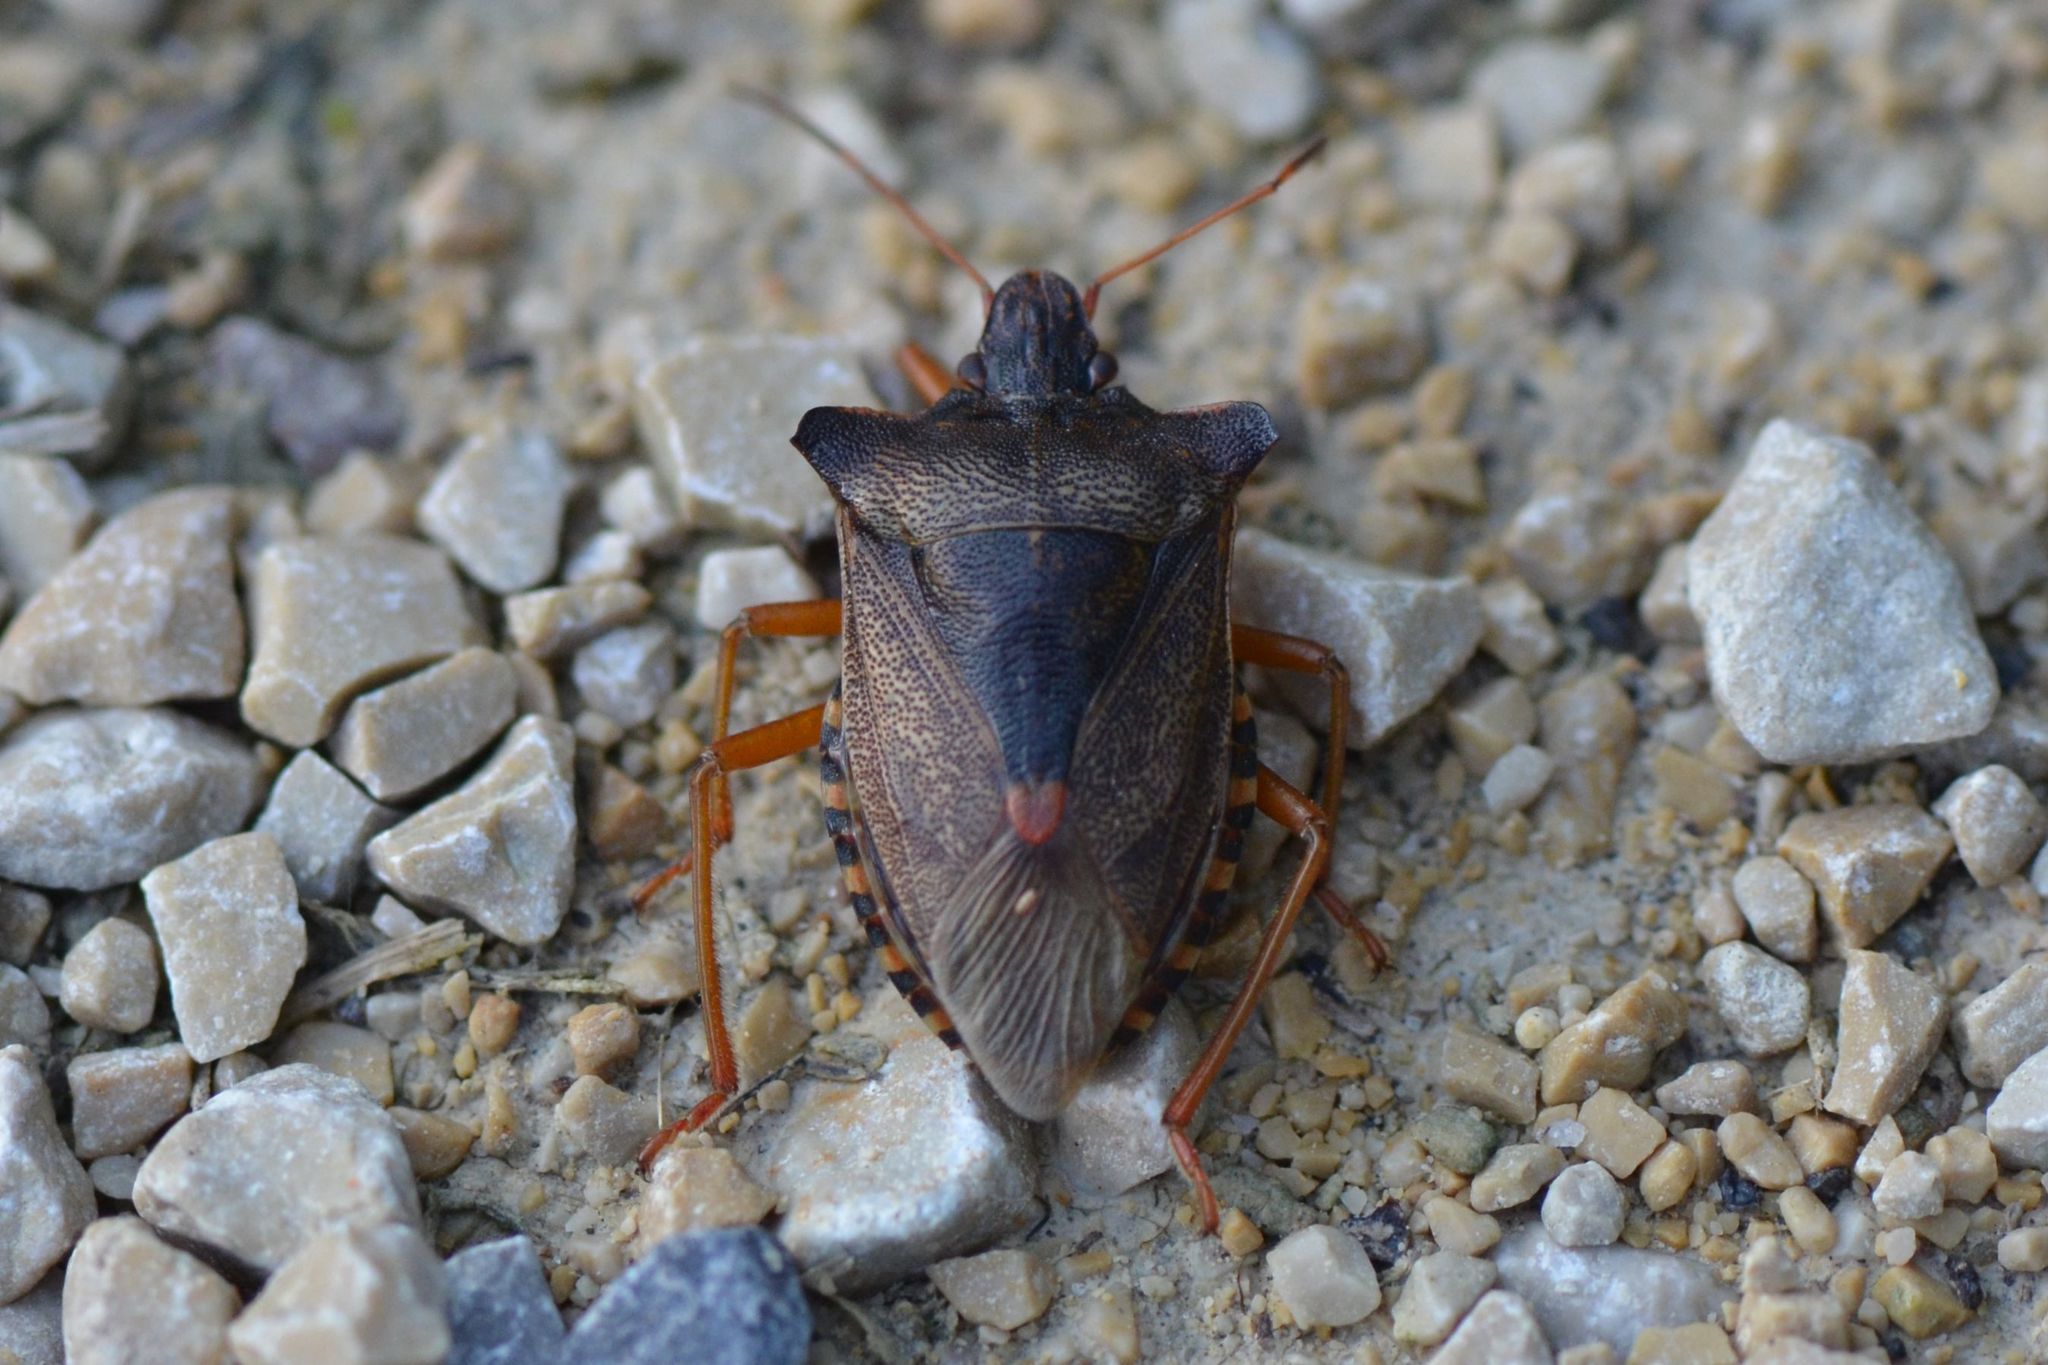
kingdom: Animalia
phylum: Arthropoda
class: Insecta
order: Hemiptera
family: Pentatomidae
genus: Pentatoma
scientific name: Pentatoma rufipes
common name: Forest bug
